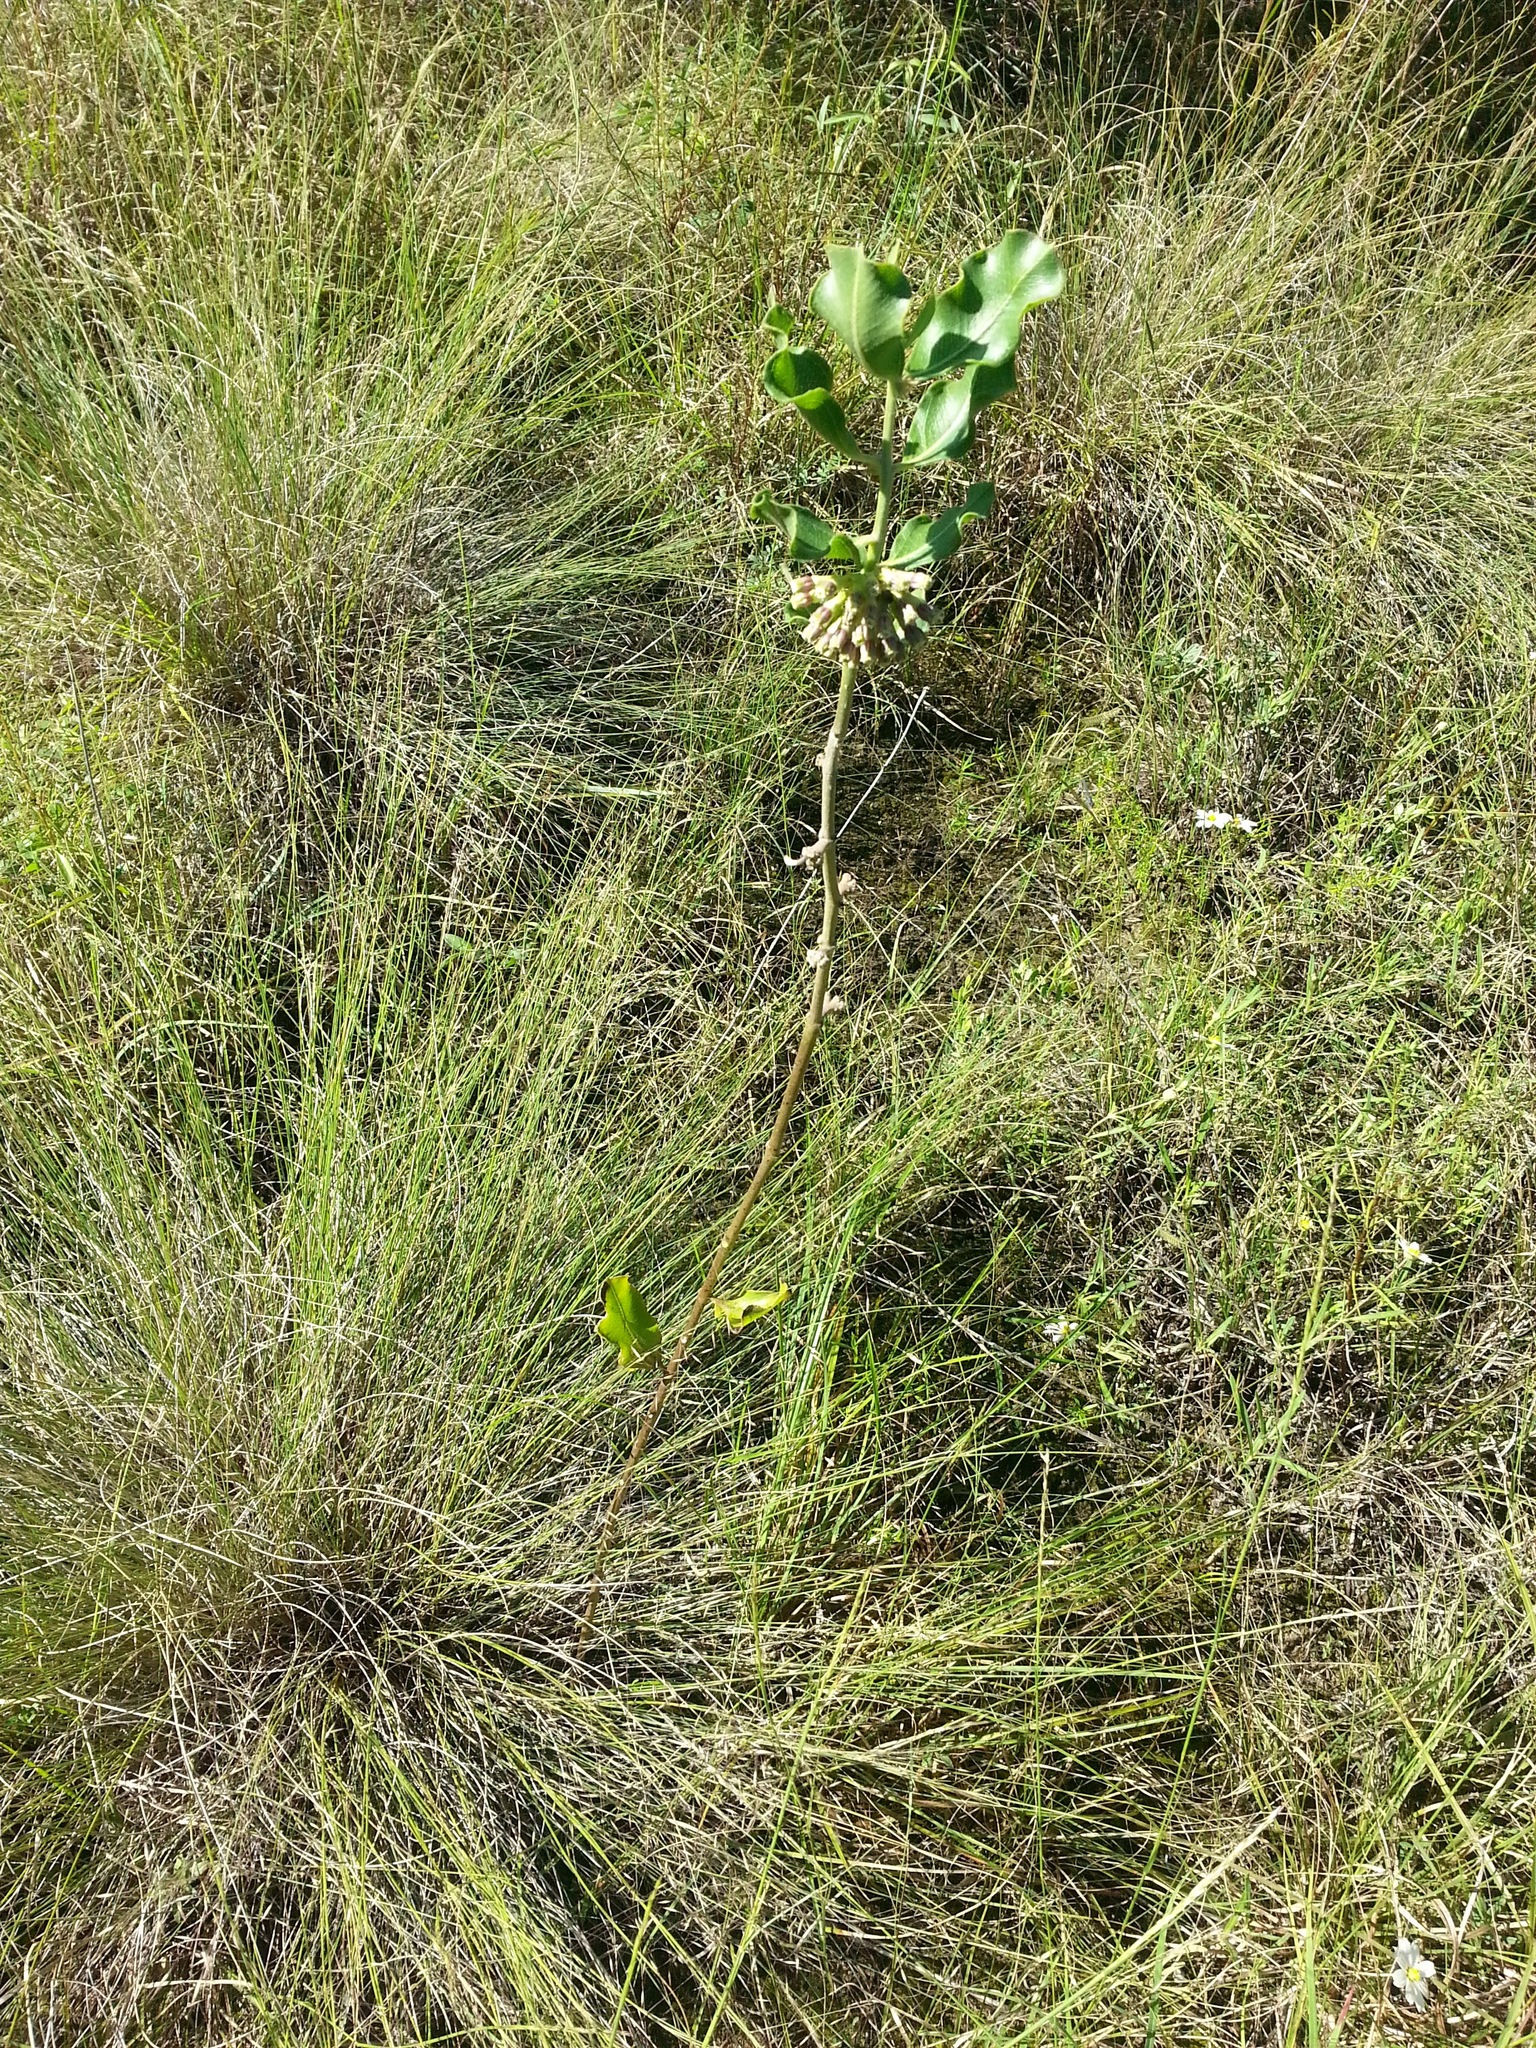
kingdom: Plantae
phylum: Tracheophyta
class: Magnoliopsida
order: Gentianales
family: Apocynaceae
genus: Asclepias
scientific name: Asclepias viridiflora
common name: Green comet milkweed
